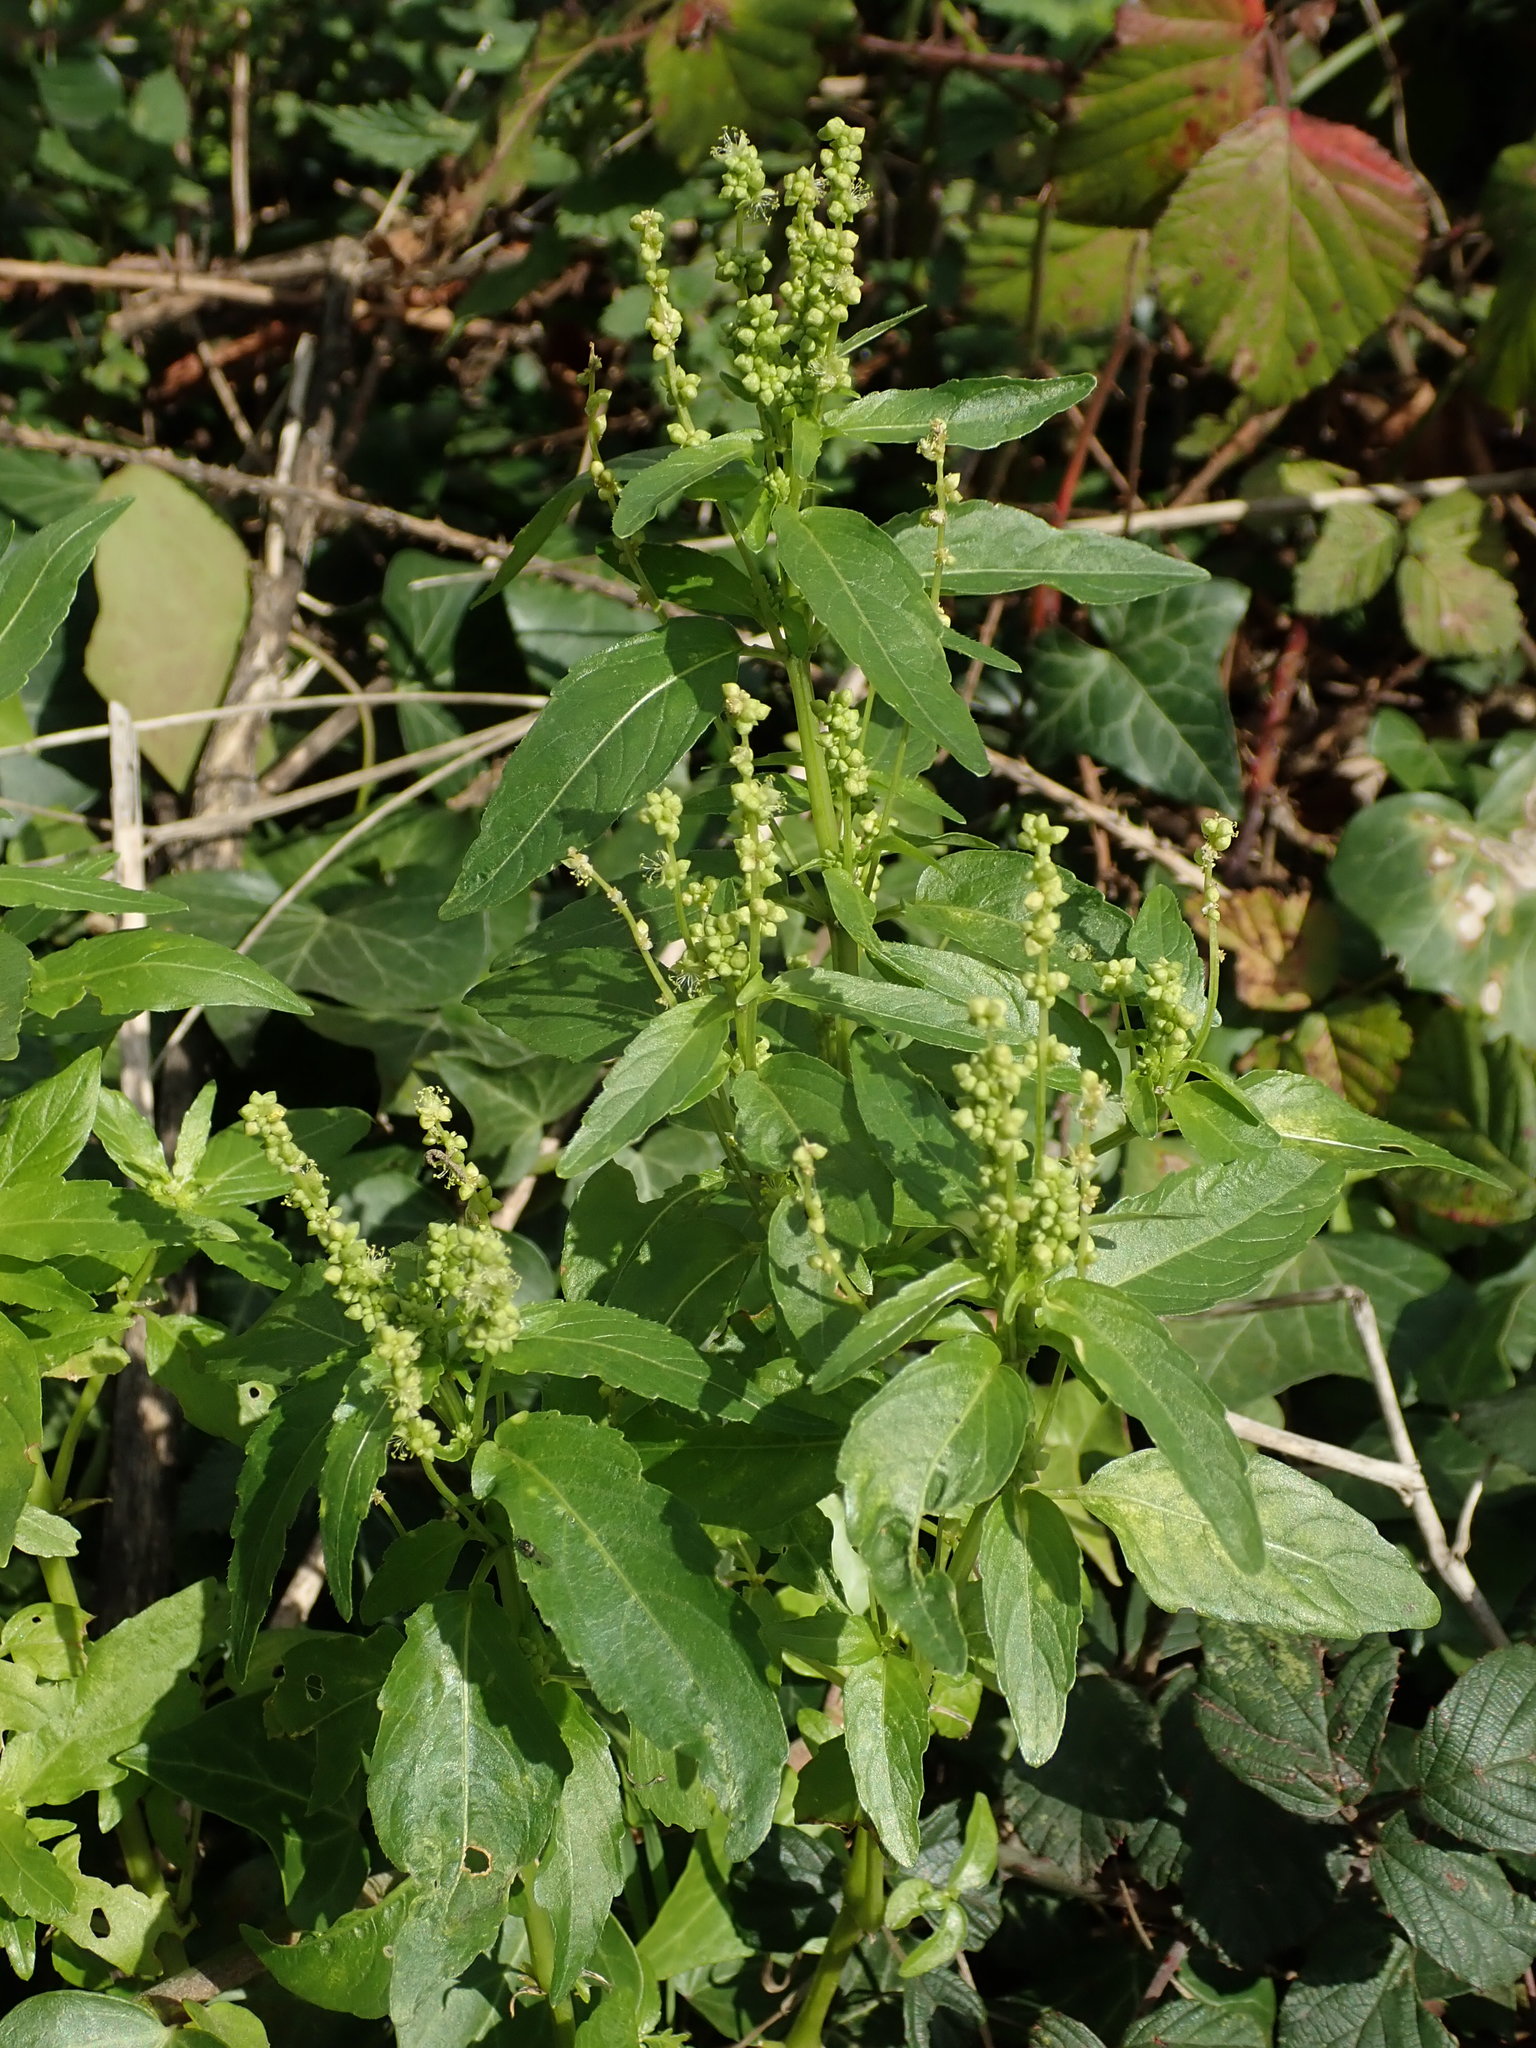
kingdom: Plantae
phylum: Tracheophyta
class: Magnoliopsida
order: Malpighiales
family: Euphorbiaceae
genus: Mercurialis
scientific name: Mercurialis annua
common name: Annual mercury
